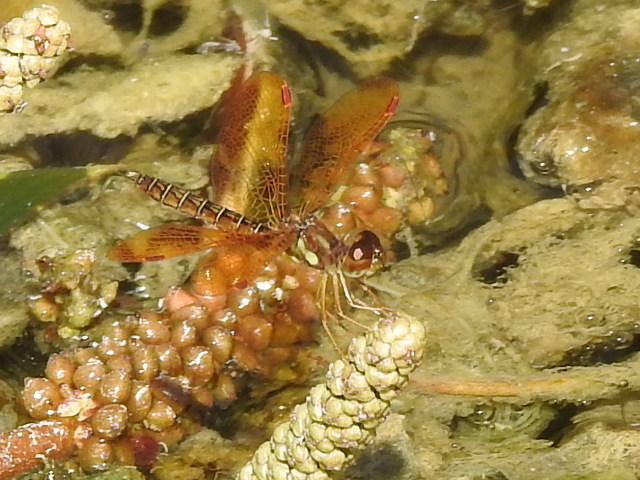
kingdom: Animalia
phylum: Arthropoda
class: Insecta
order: Odonata
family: Libellulidae
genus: Perithemis
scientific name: Perithemis tenera
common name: Eastern amberwing
